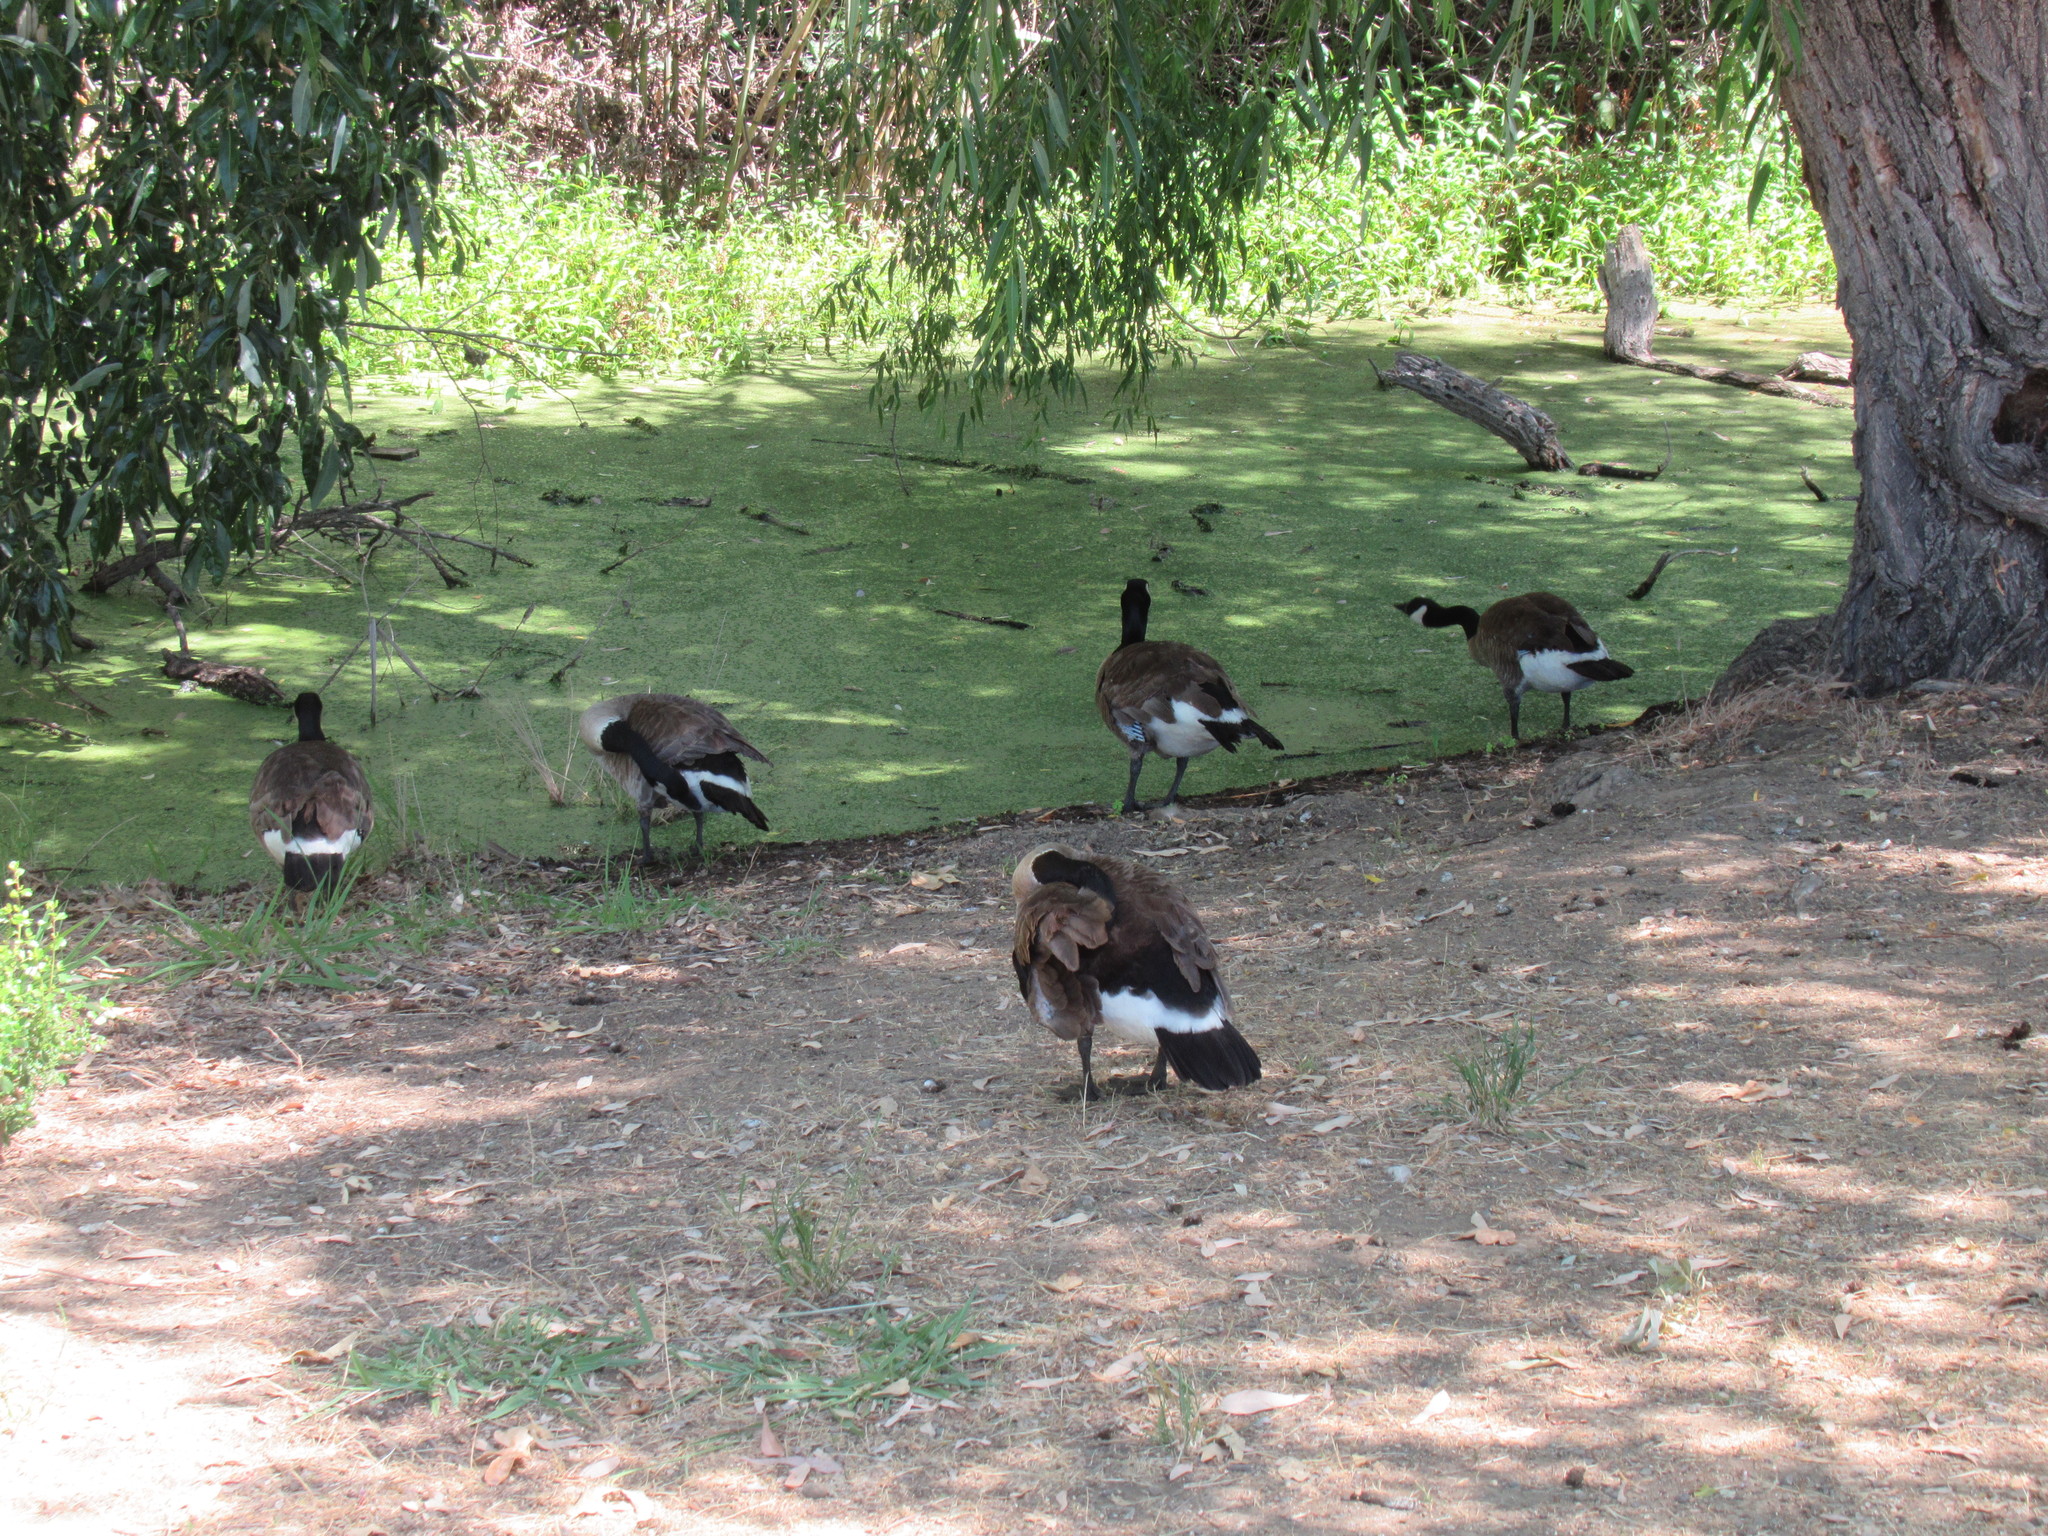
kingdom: Animalia
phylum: Chordata
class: Aves
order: Anseriformes
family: Anatidae
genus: Branta
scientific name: Branta canadensis
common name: Canada goose
